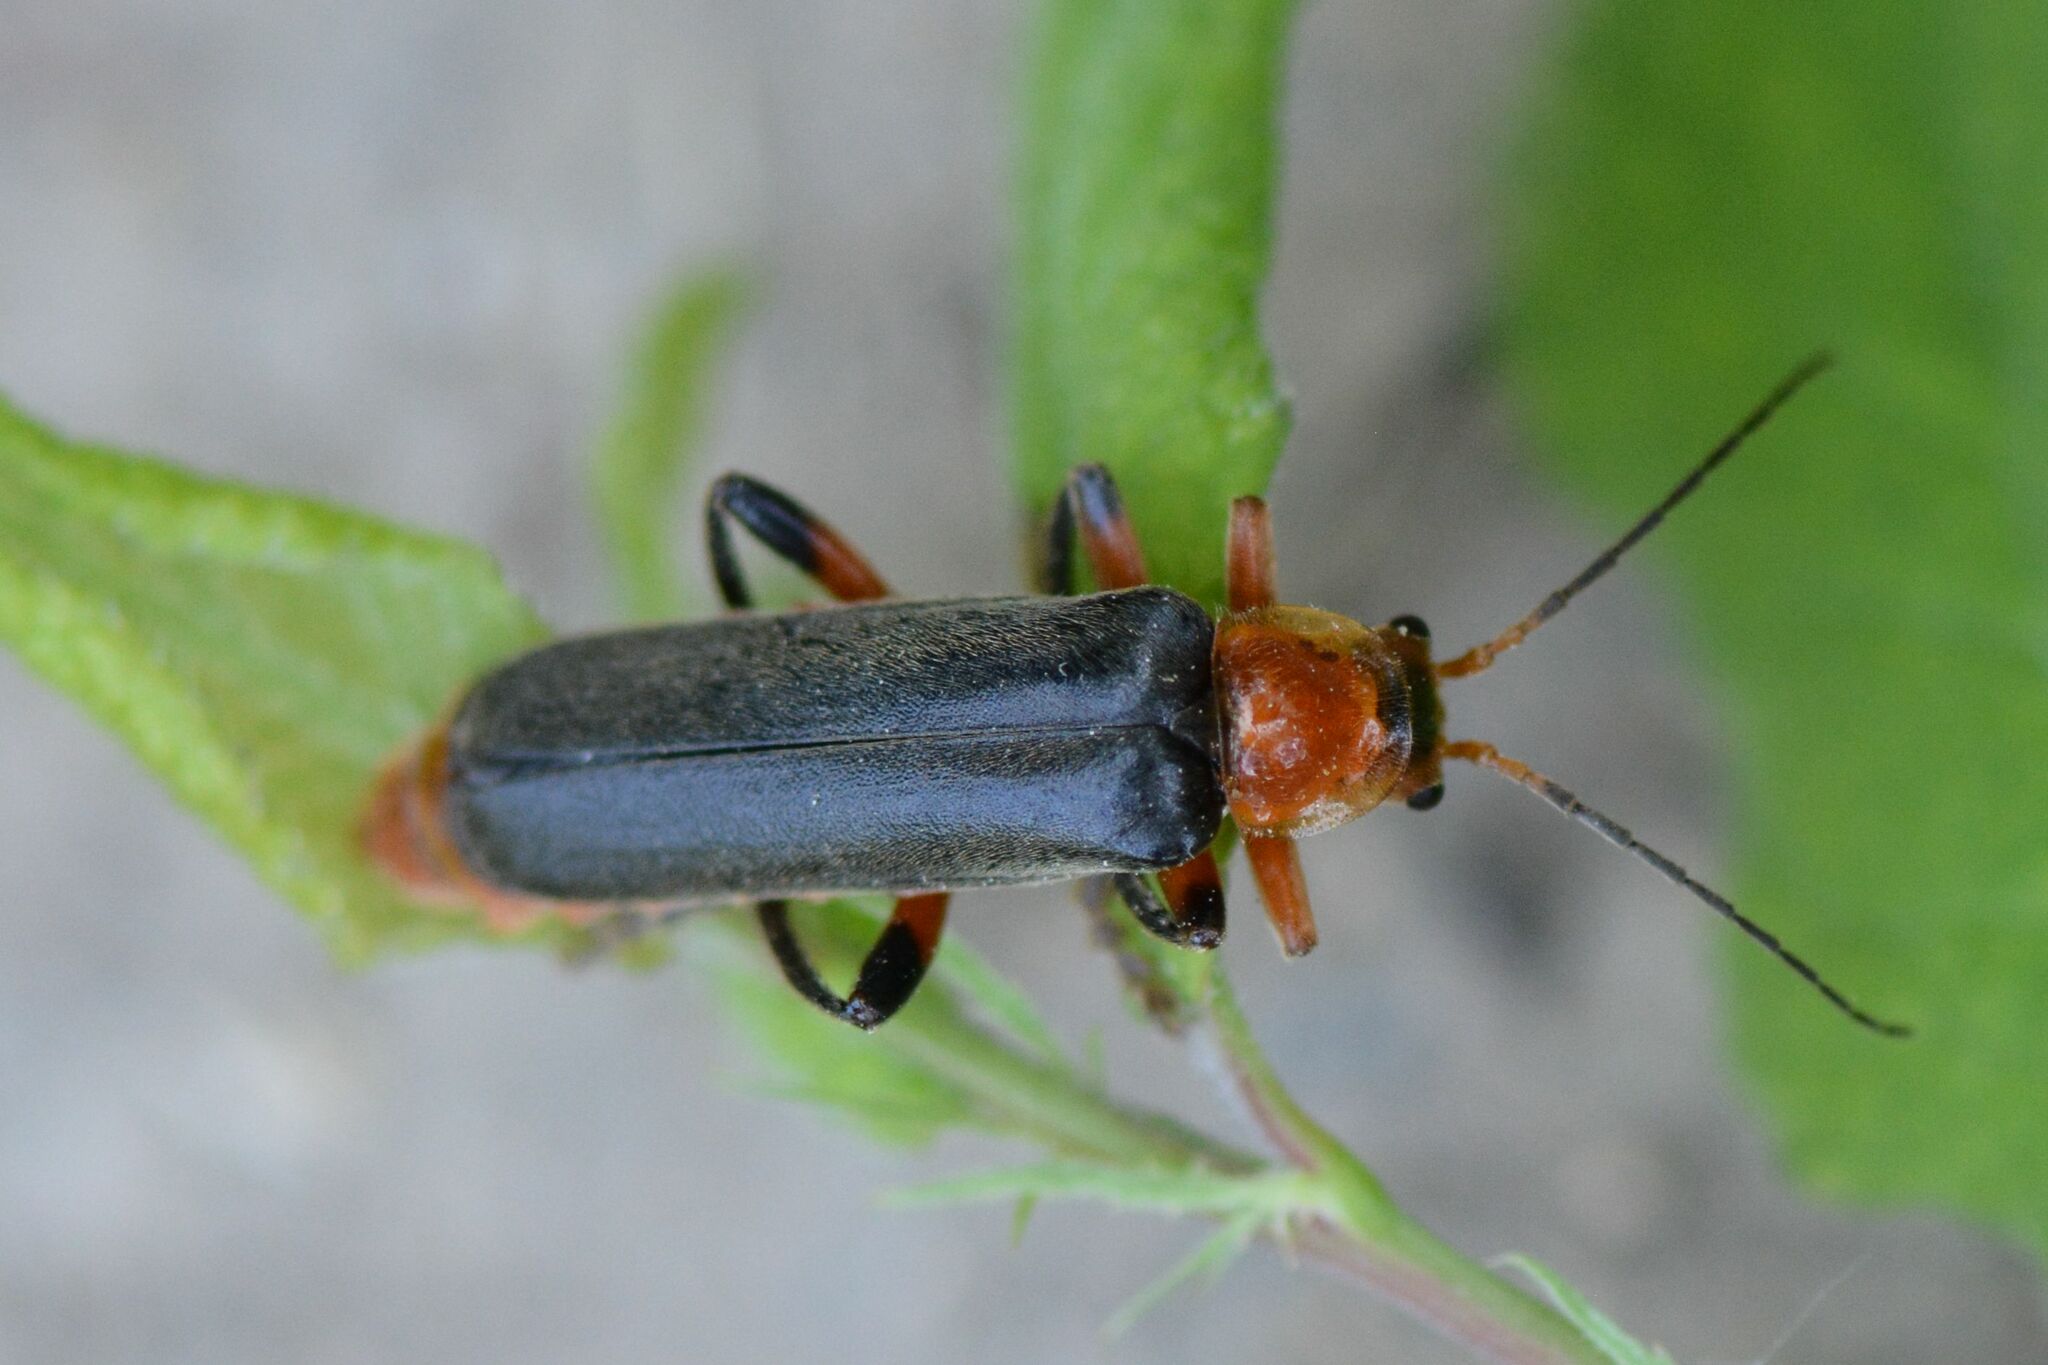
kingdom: Animalia
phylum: Arthropoda
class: Insecta
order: Coleoptera
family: Cantharidae
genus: Cantharis
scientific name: Cantharis livida
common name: Livid soldier beetle
